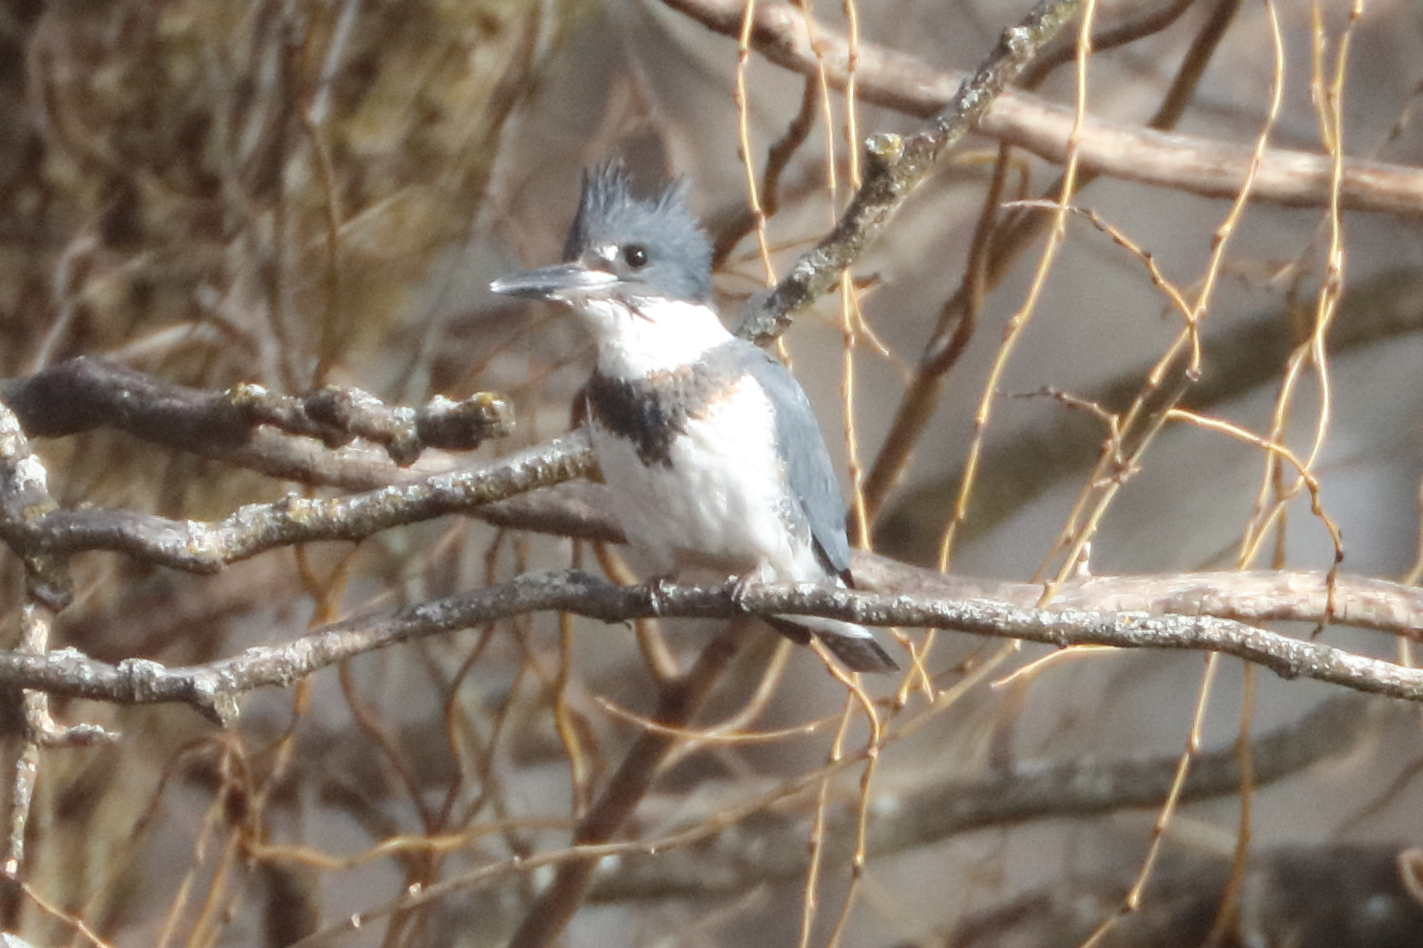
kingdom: Animalia
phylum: Chordata
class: Aves
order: Coraciiformes
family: Alcedinidae
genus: Megaceryle
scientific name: Megaceryle alcyon
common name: Belted kingfisher
